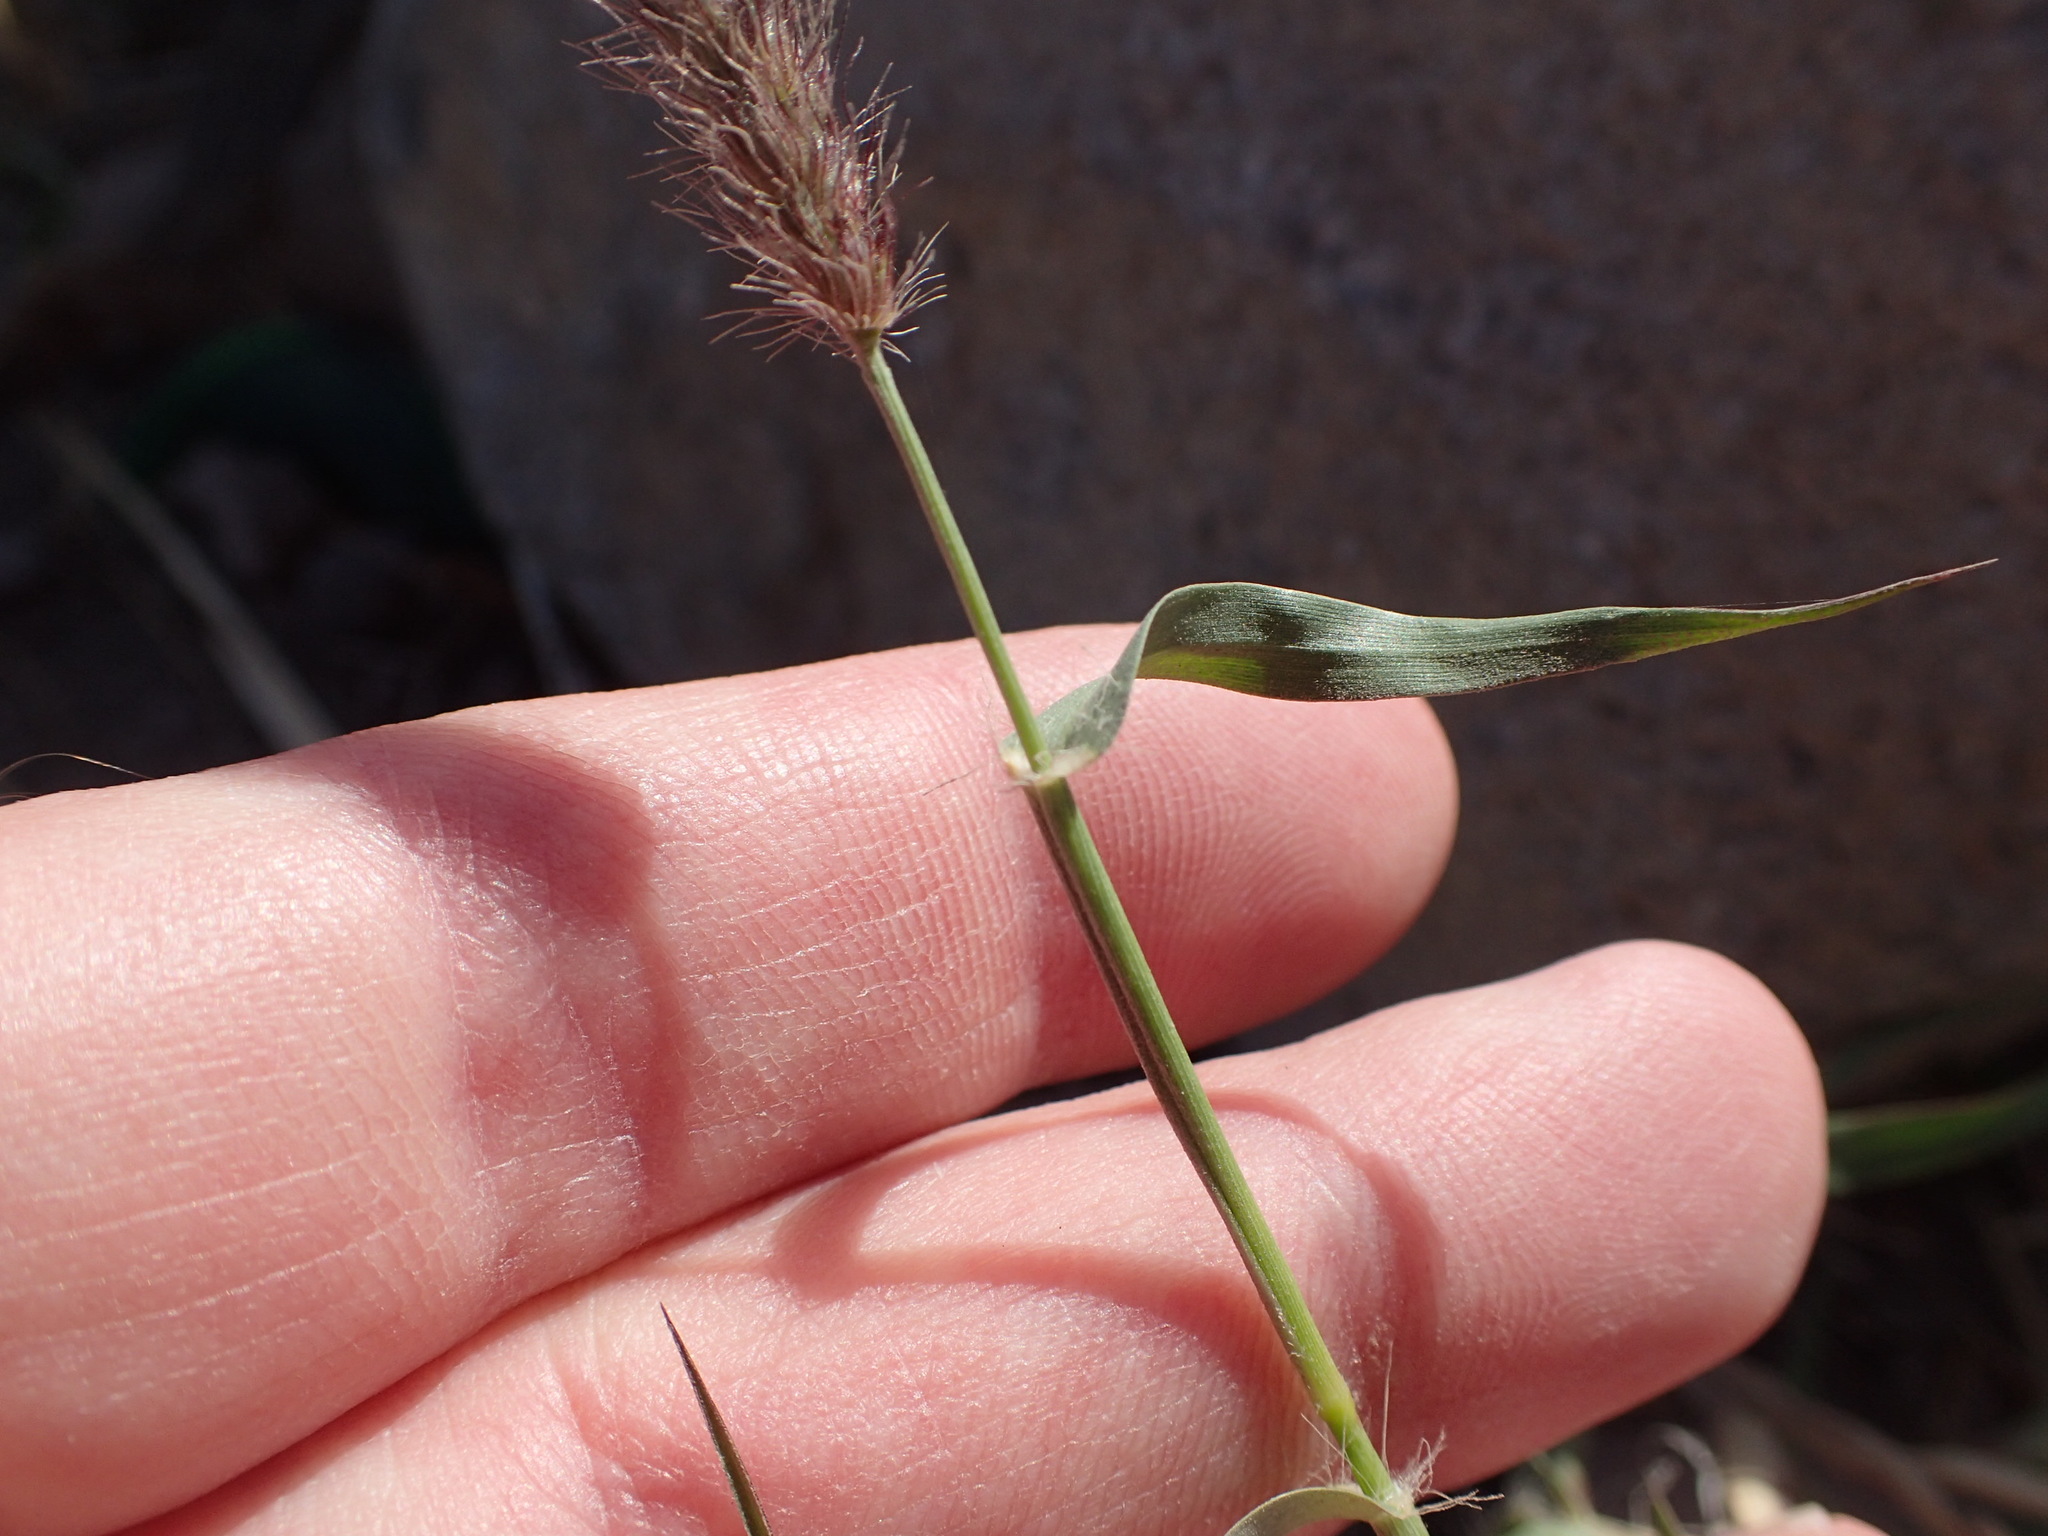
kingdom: Plantae
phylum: Tracheophyta
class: Liliopsida
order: Poales
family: Poaceae
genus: Cenchrus
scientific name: Cenchrus ciliaris
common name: Buffelgrass
